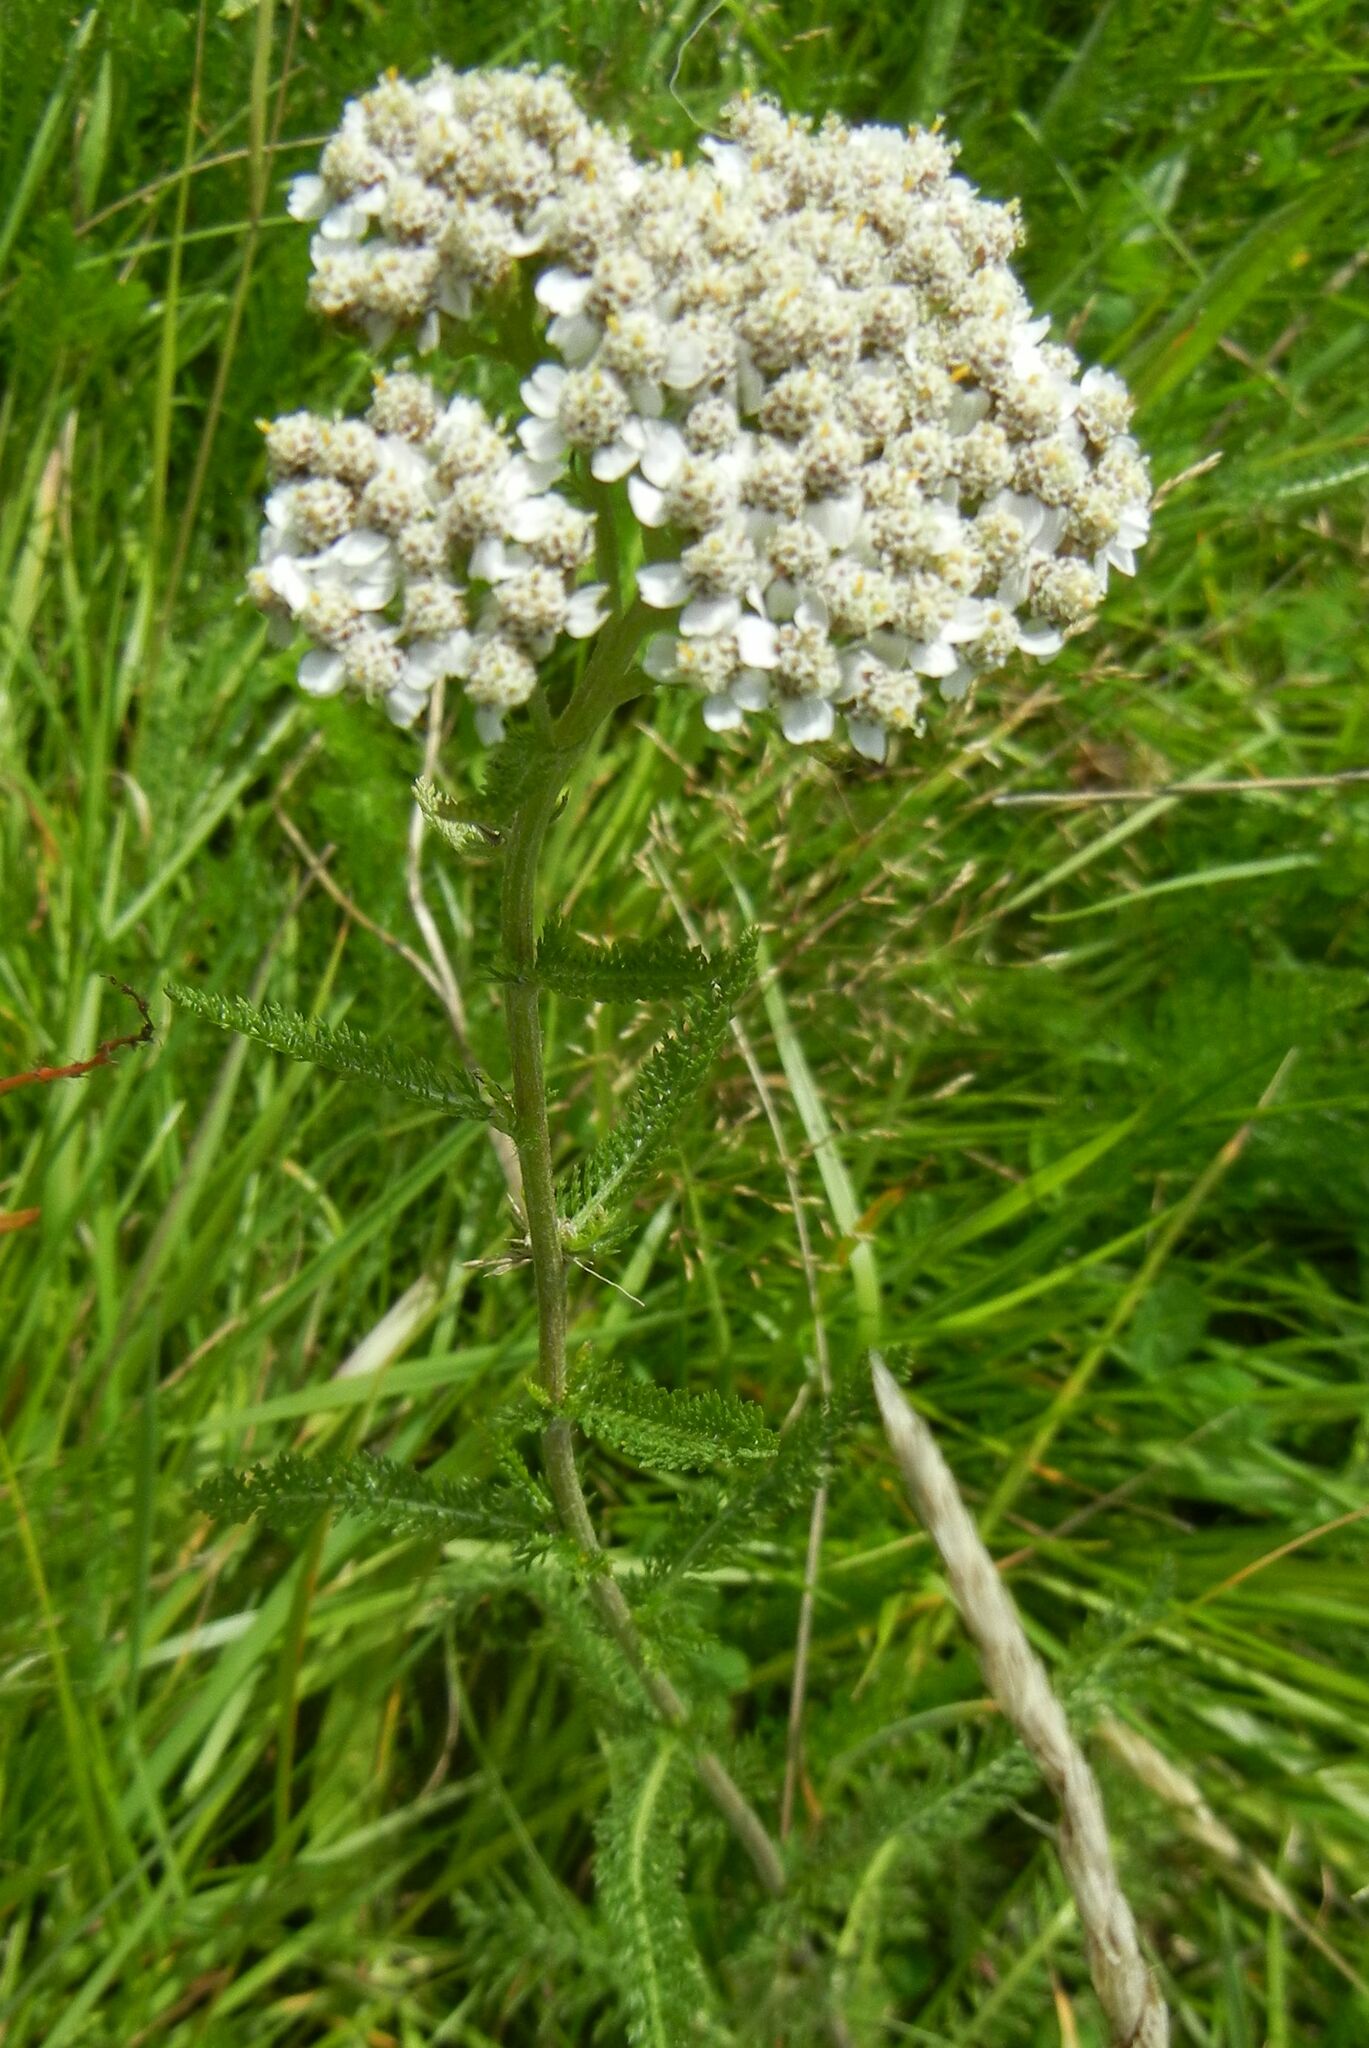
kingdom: Plantae
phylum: Tracheophyta
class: Magnoliopsida
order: Asterales
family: Asteraceae
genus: Achillea
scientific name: Achillea millefolium
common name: Yarrow
